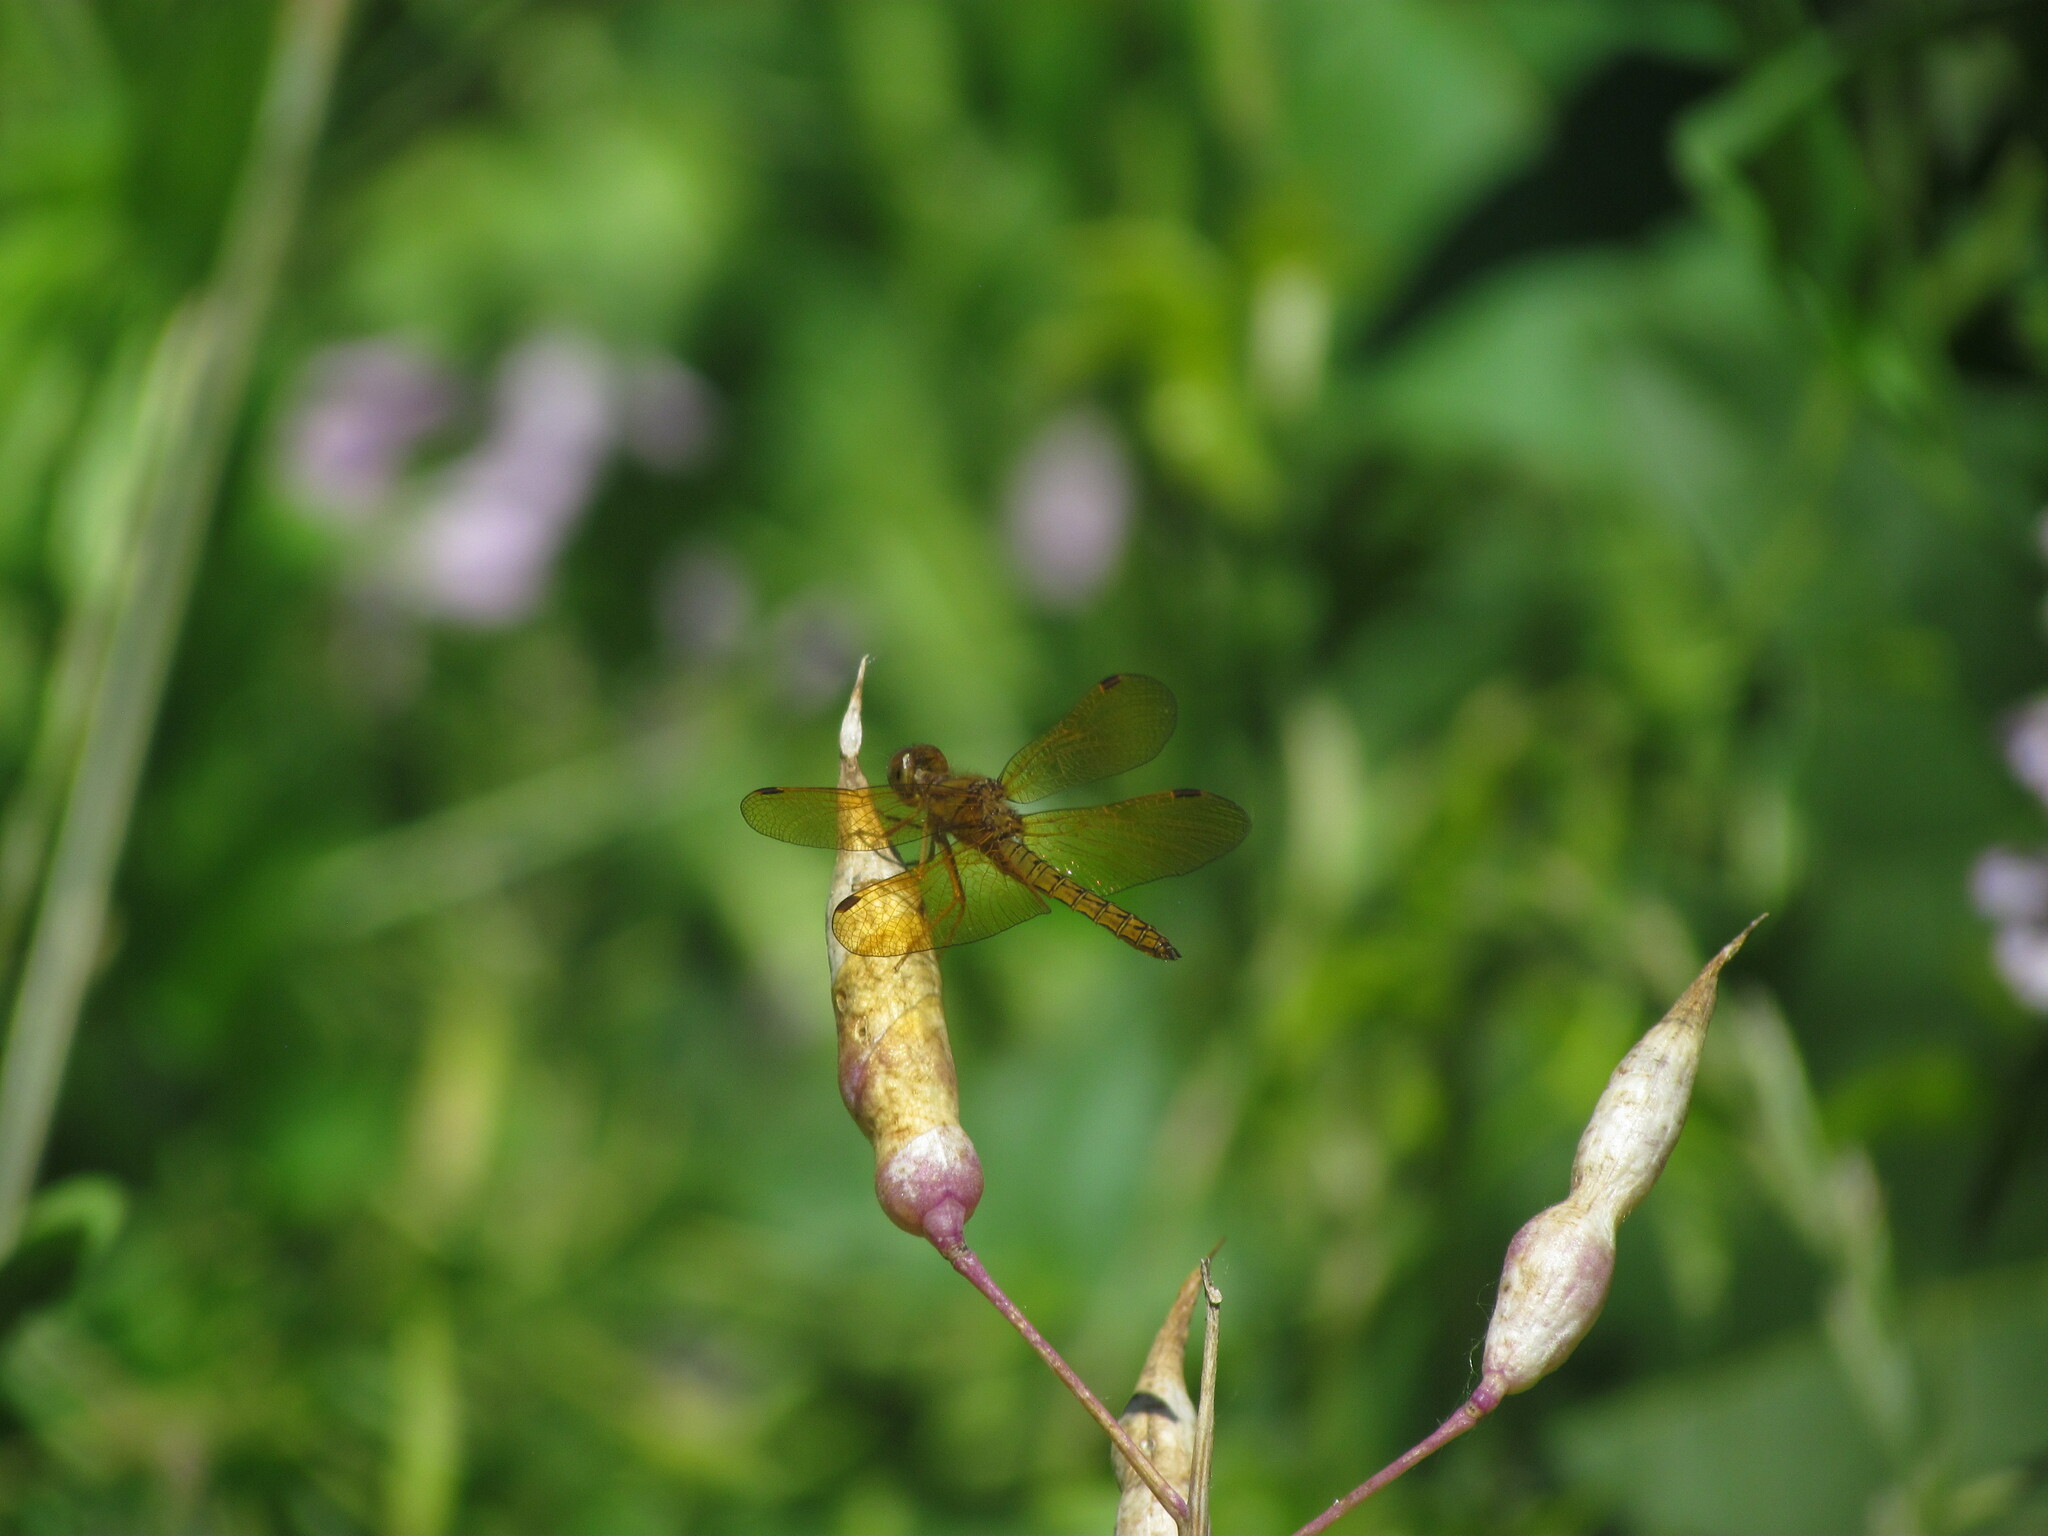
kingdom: Animalia
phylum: Arthropoda
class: Insecta
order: Odonata
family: Libellulidae
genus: Perithemis
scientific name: Perithemis icteroptera
